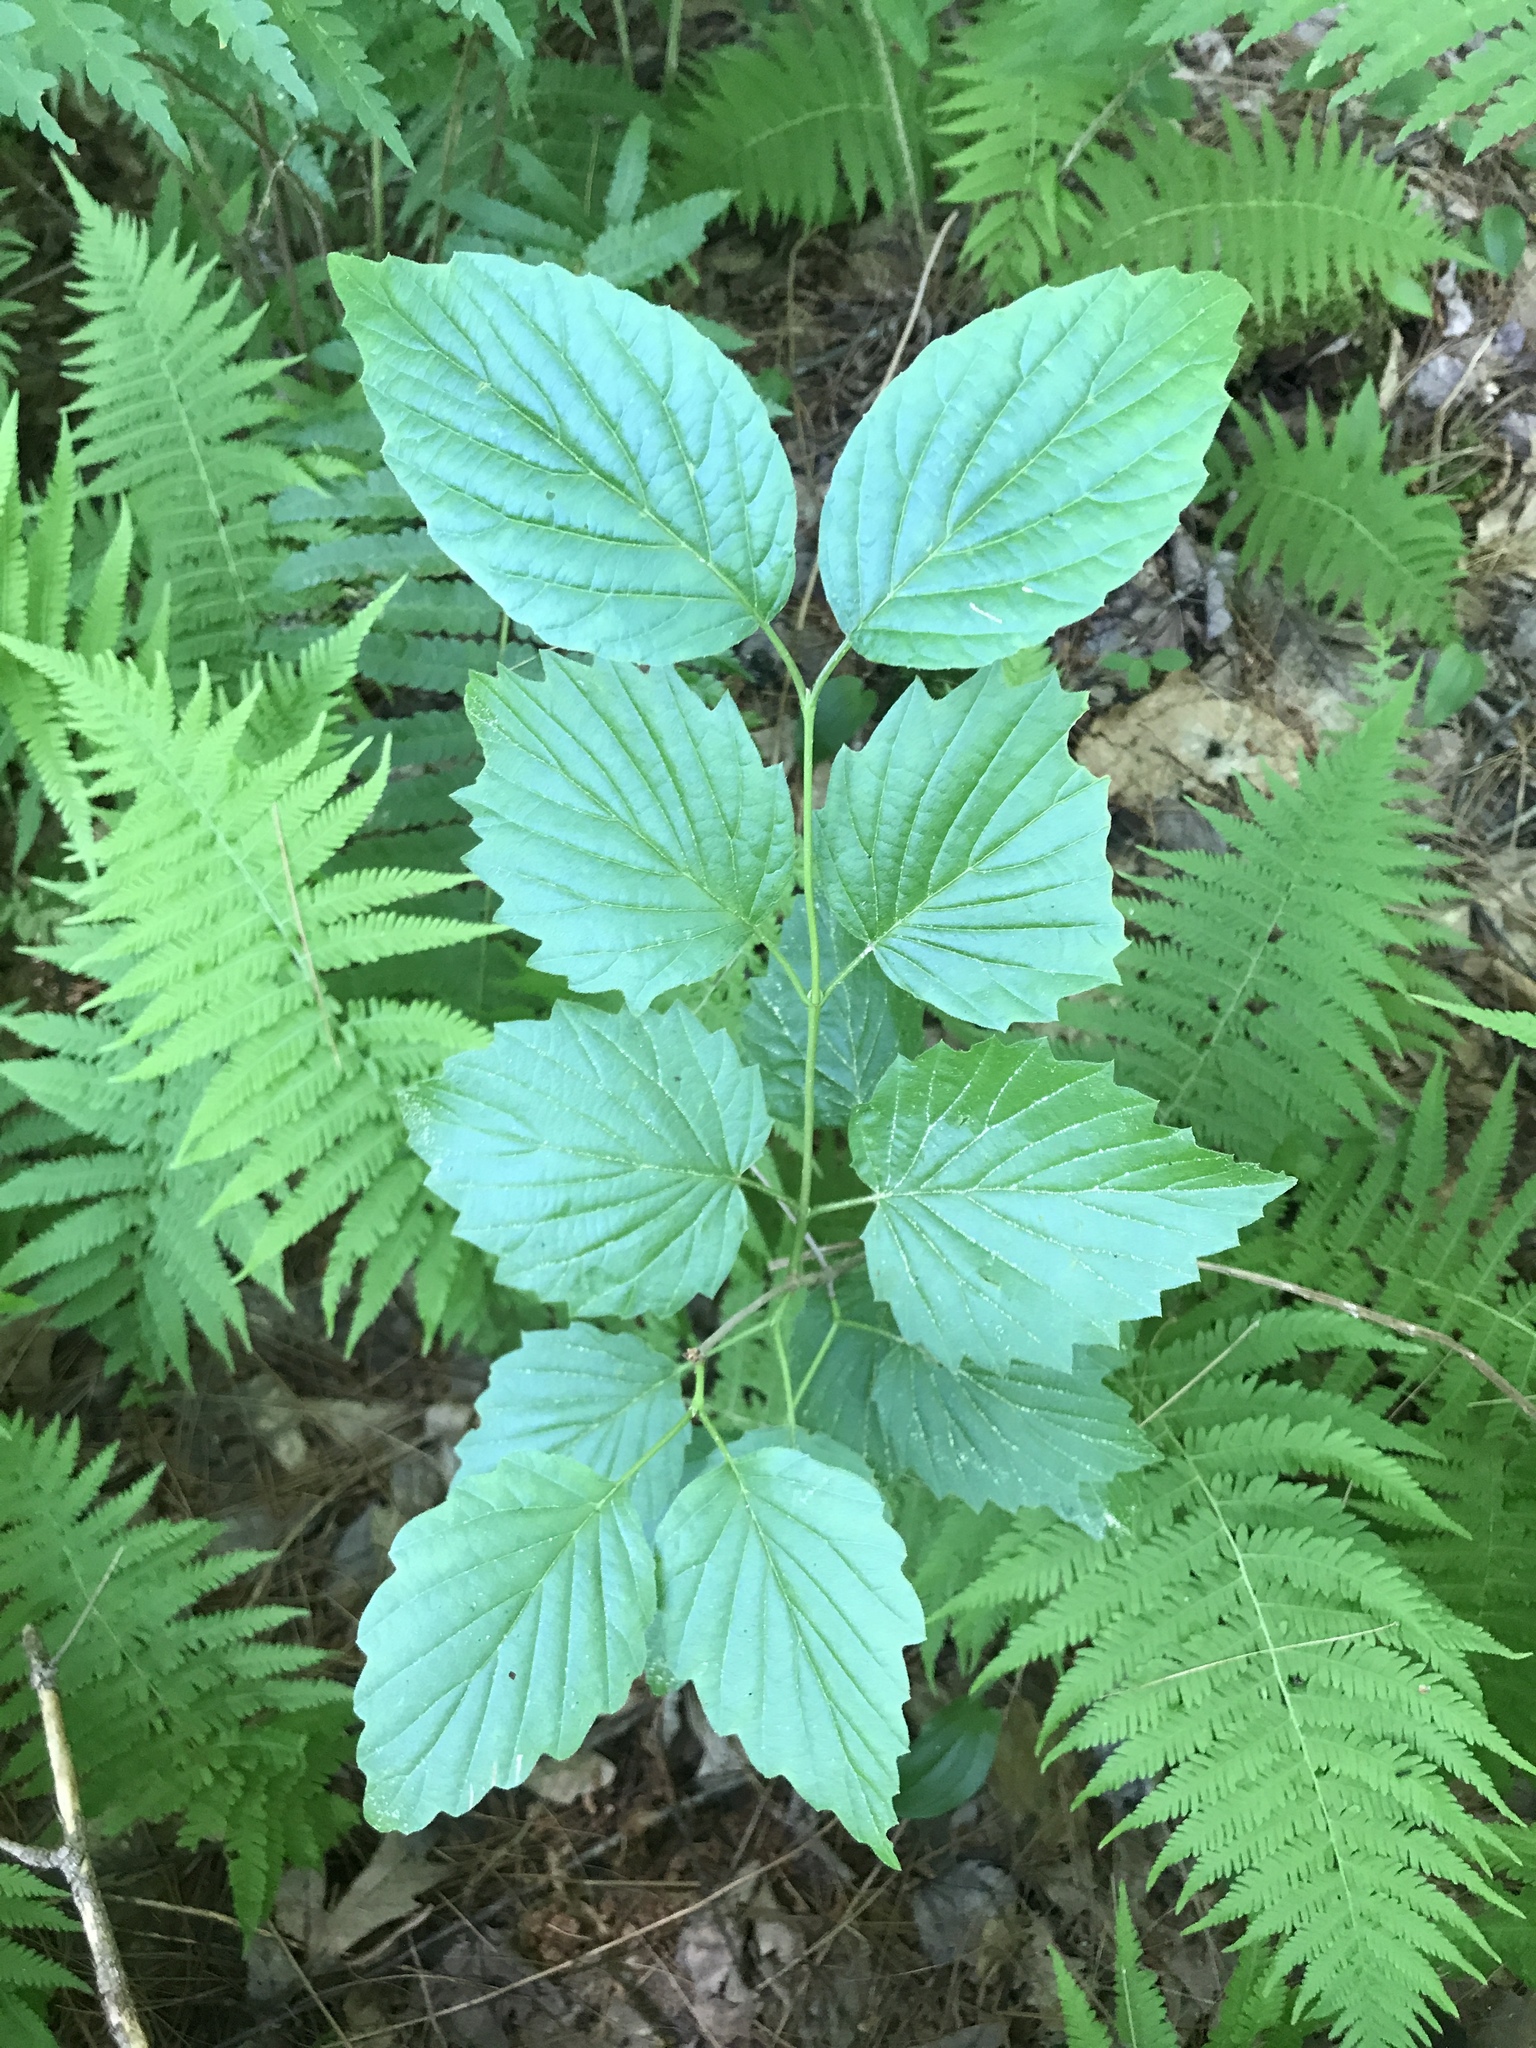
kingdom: Plantae
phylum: Tracheophyta
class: Magnoliopsida
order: Dipsacales
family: Viburnaceae
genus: Viburnum
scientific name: Viburnum dentatum
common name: Arrow-wood
